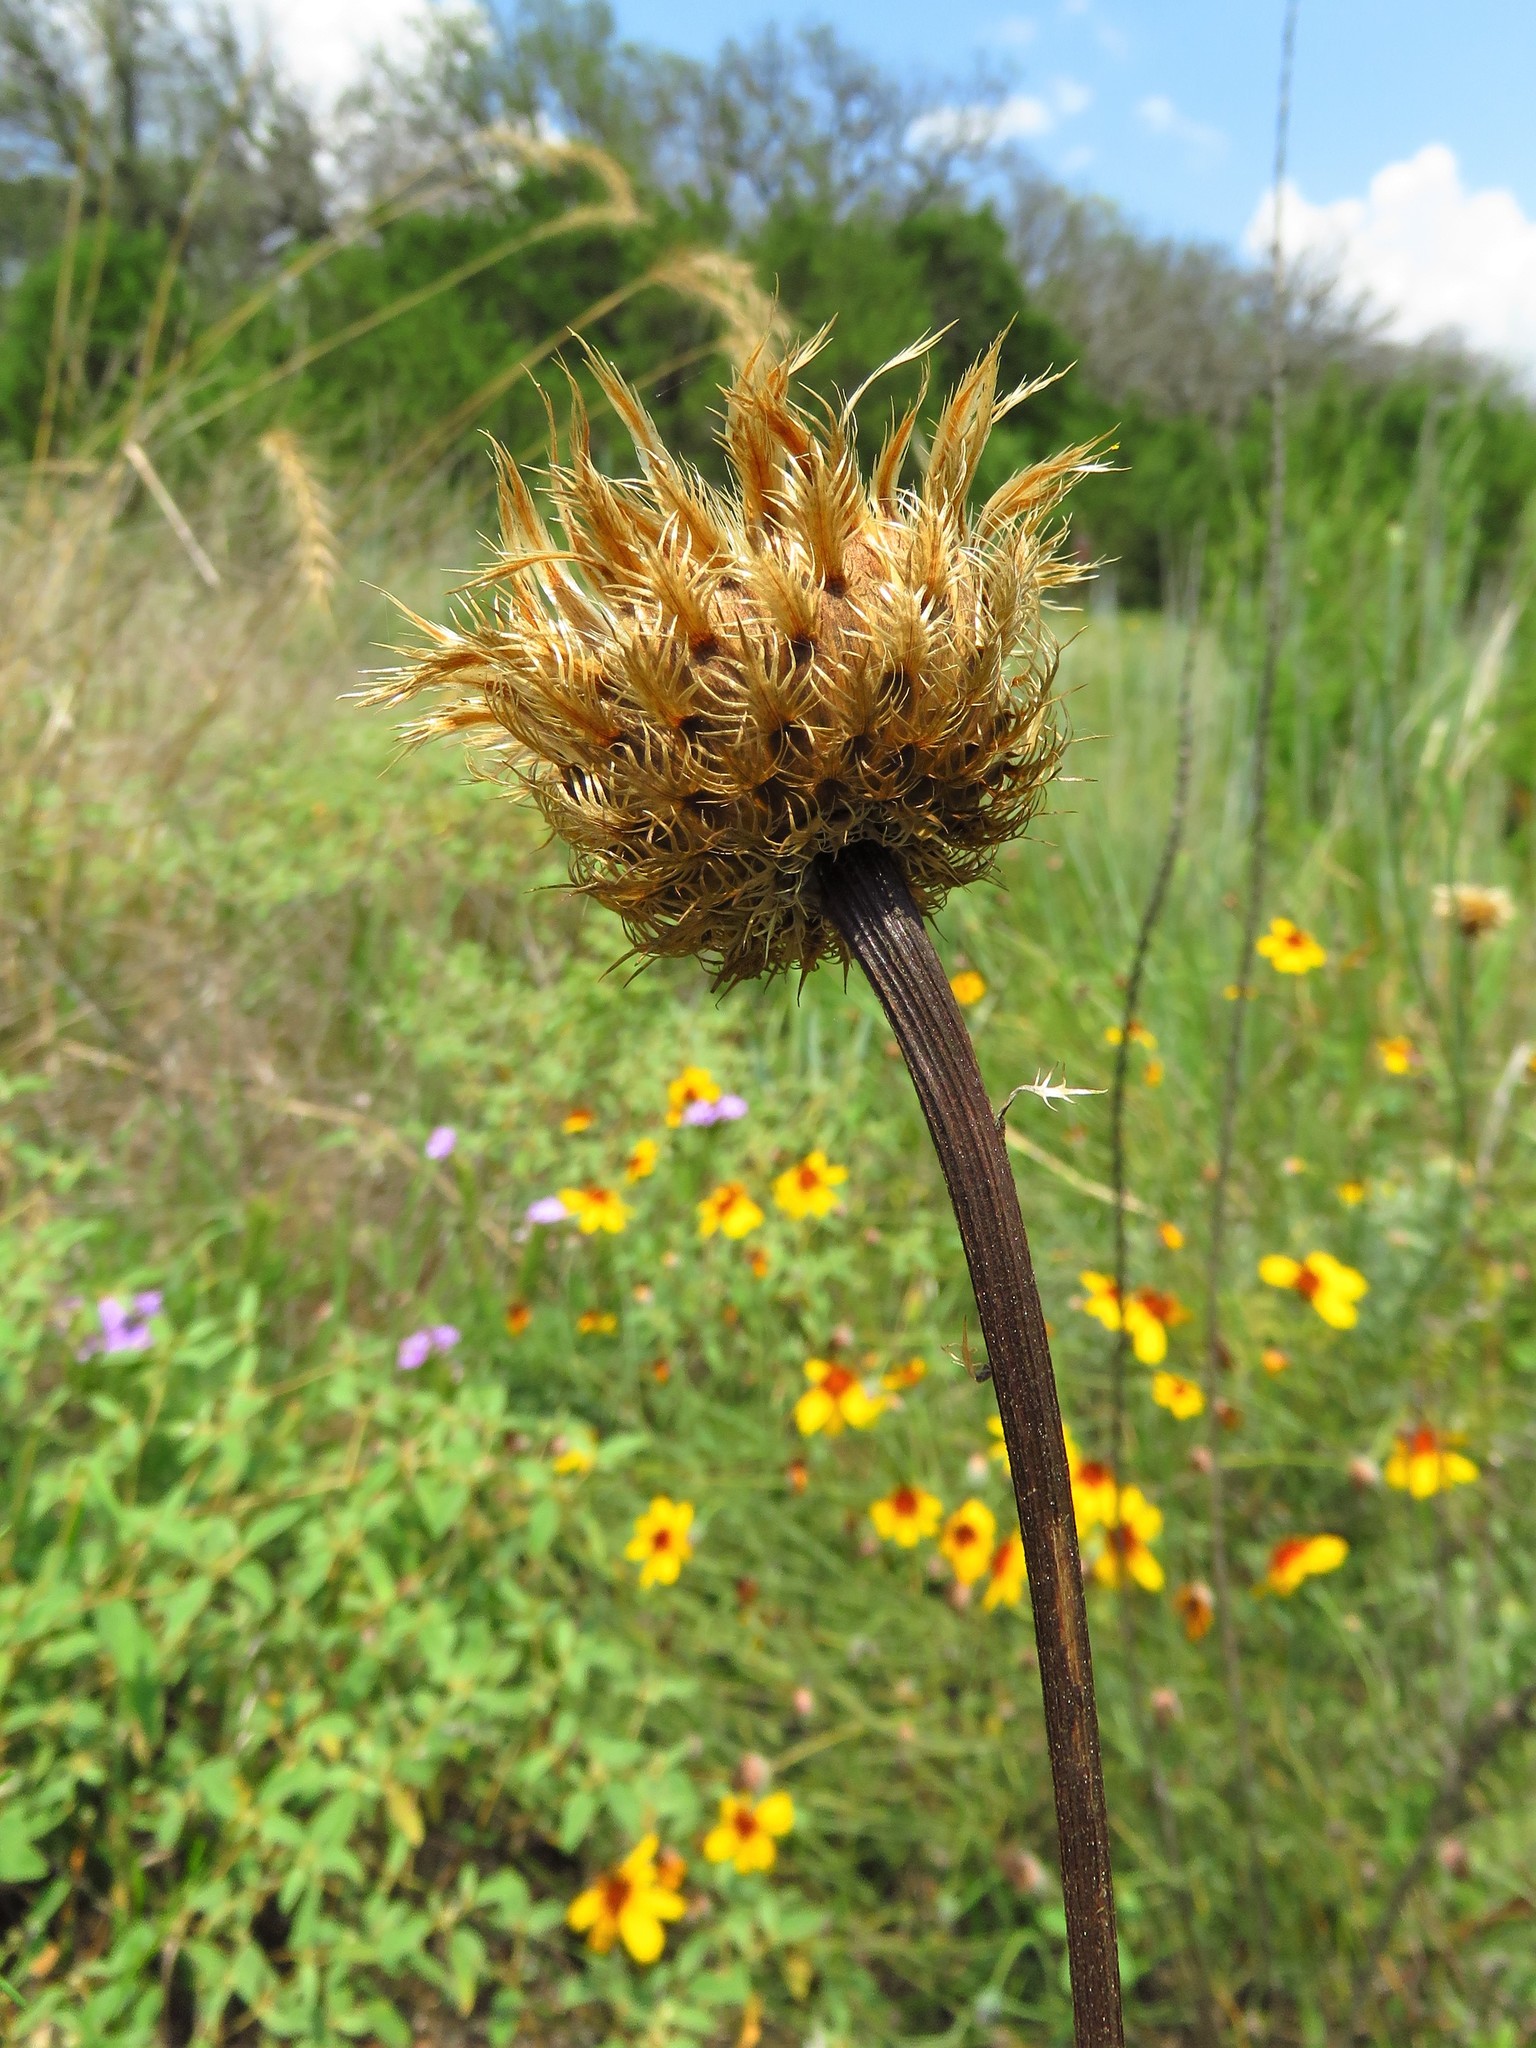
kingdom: Plantae
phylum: Tracheophyta
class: Magnoliopsida
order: Asterales
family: Asteraceae
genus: Plectocephalus
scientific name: Plectocephalus americanus
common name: American basket-flower
